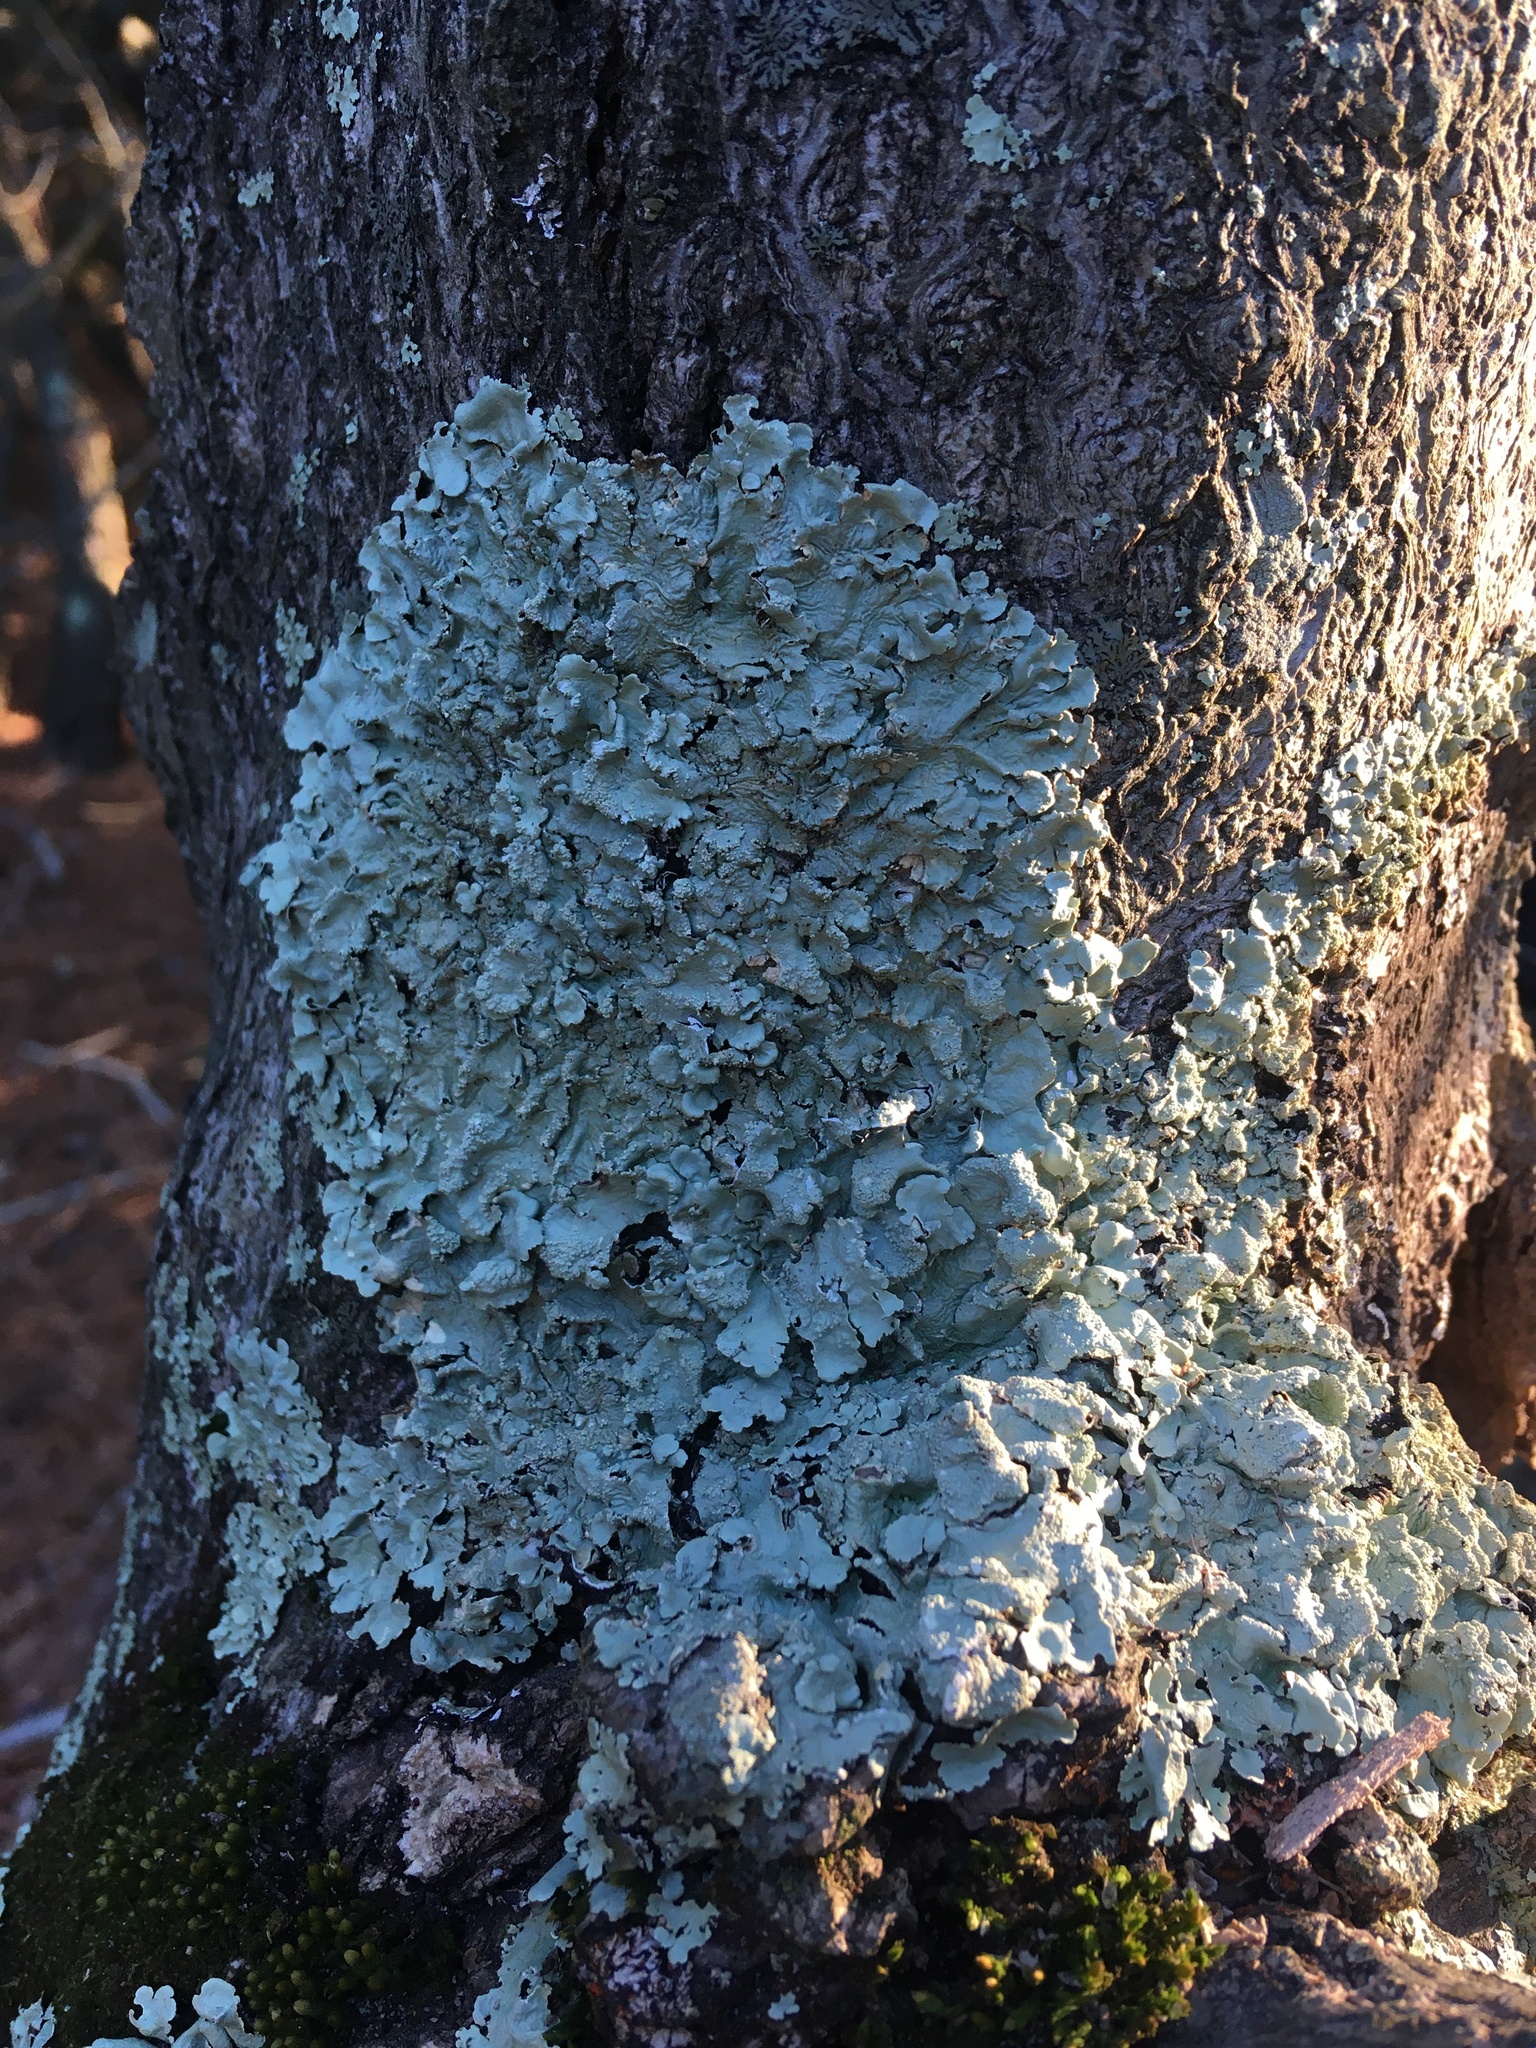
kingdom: Fungi
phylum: Ascomycota
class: Lecanoromycetes
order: Lecanorales
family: Parmeliaceae
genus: Flavoparmelia
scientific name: Flavoparmelia caperata
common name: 40-mile per hour lichen
